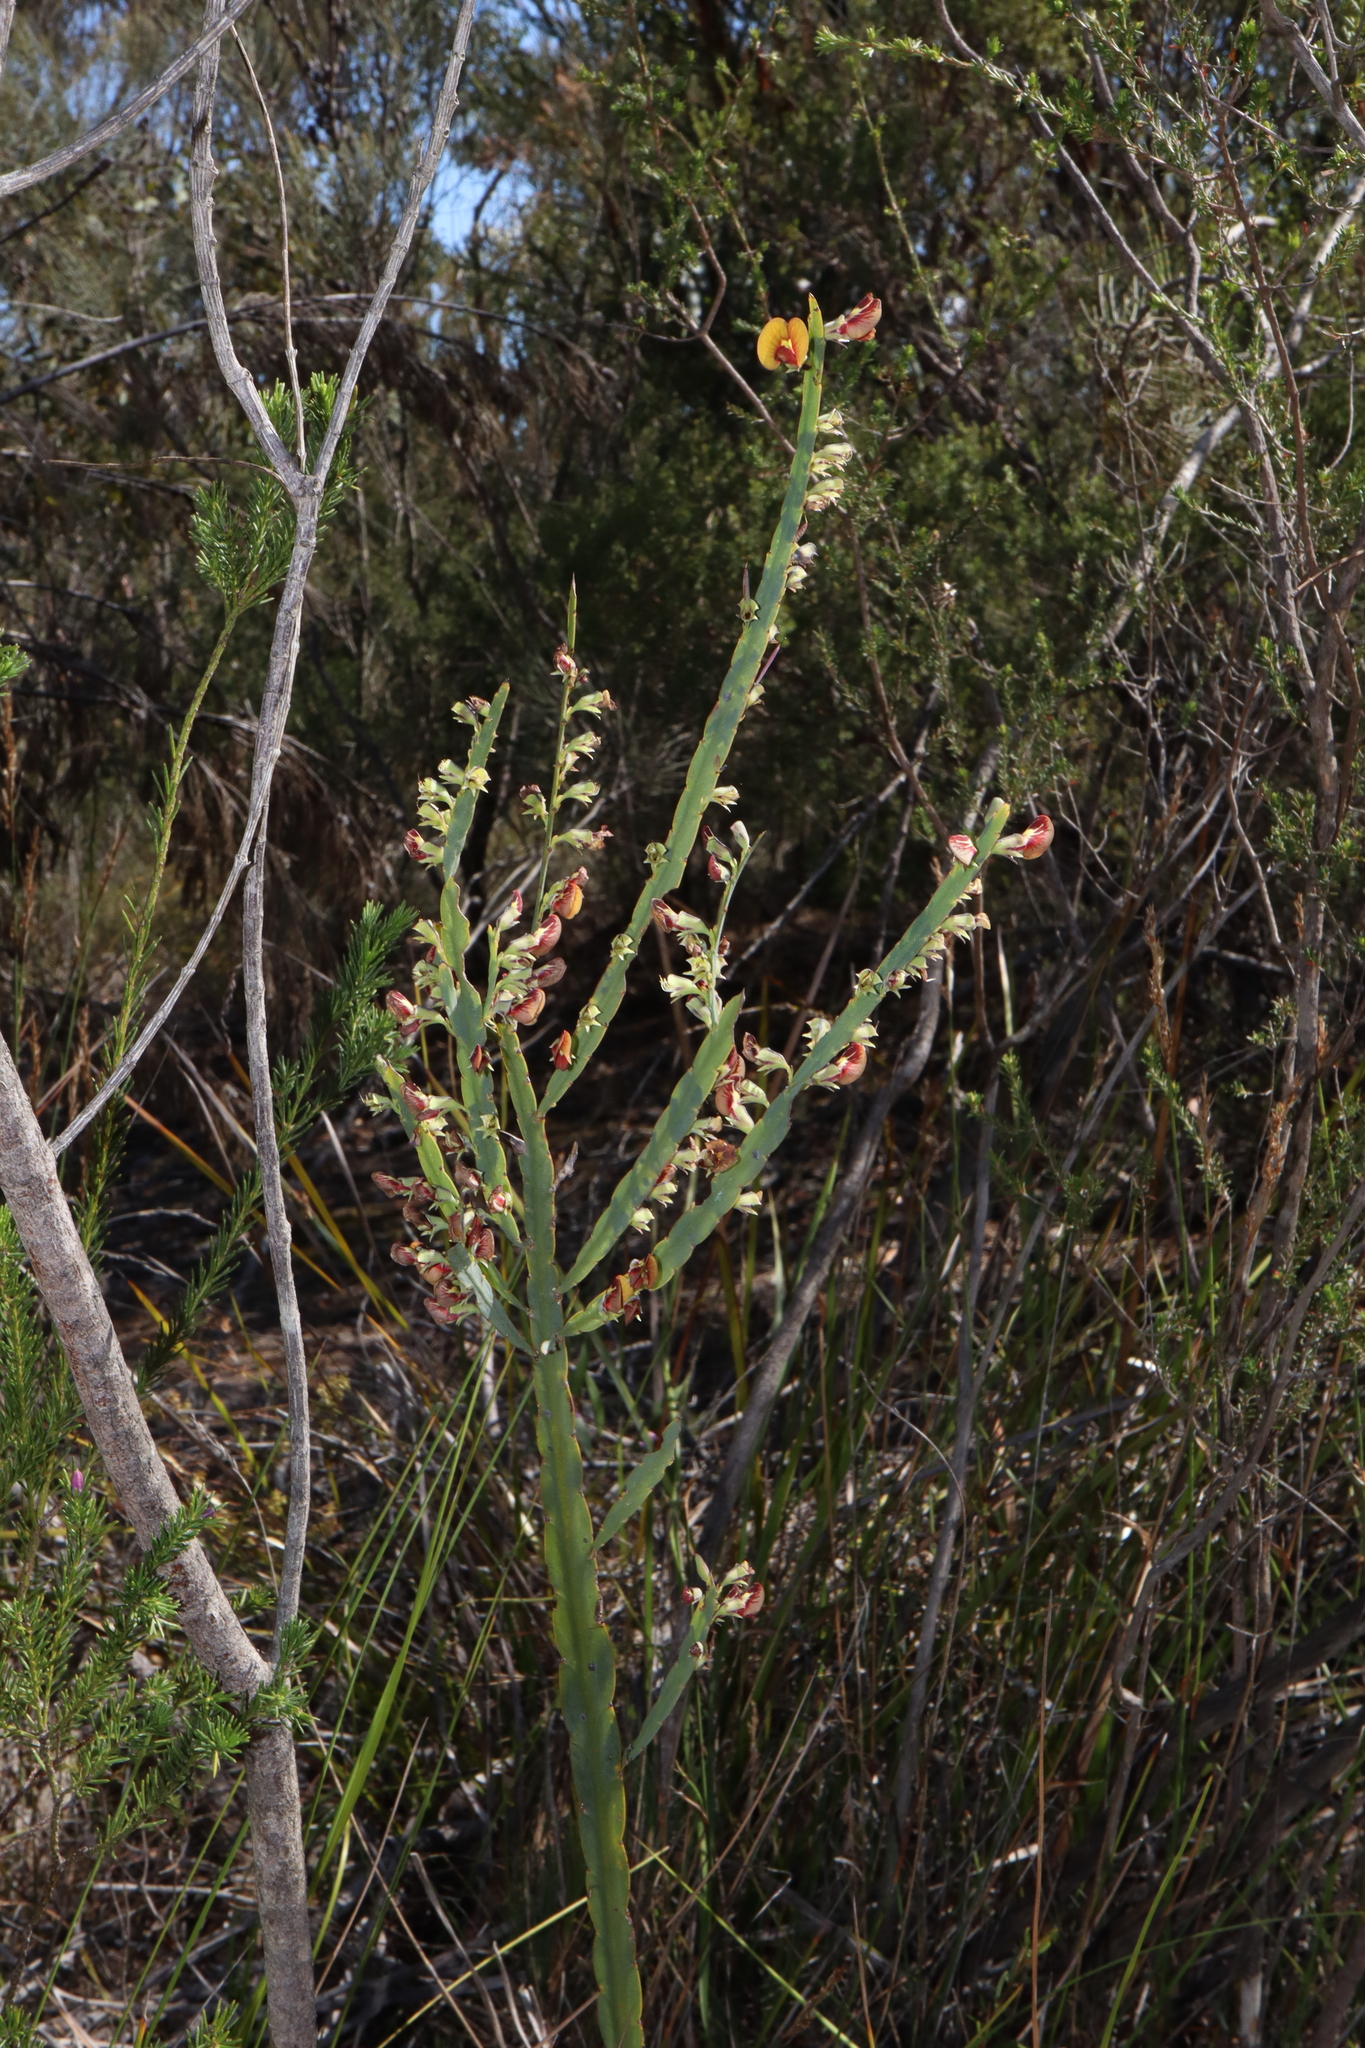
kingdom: Plantae
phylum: Tracheophyta
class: Magnoliopsida
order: Fabales
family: Fabaceae
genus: Bossiaea
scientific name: Bossiaea scolopendria
